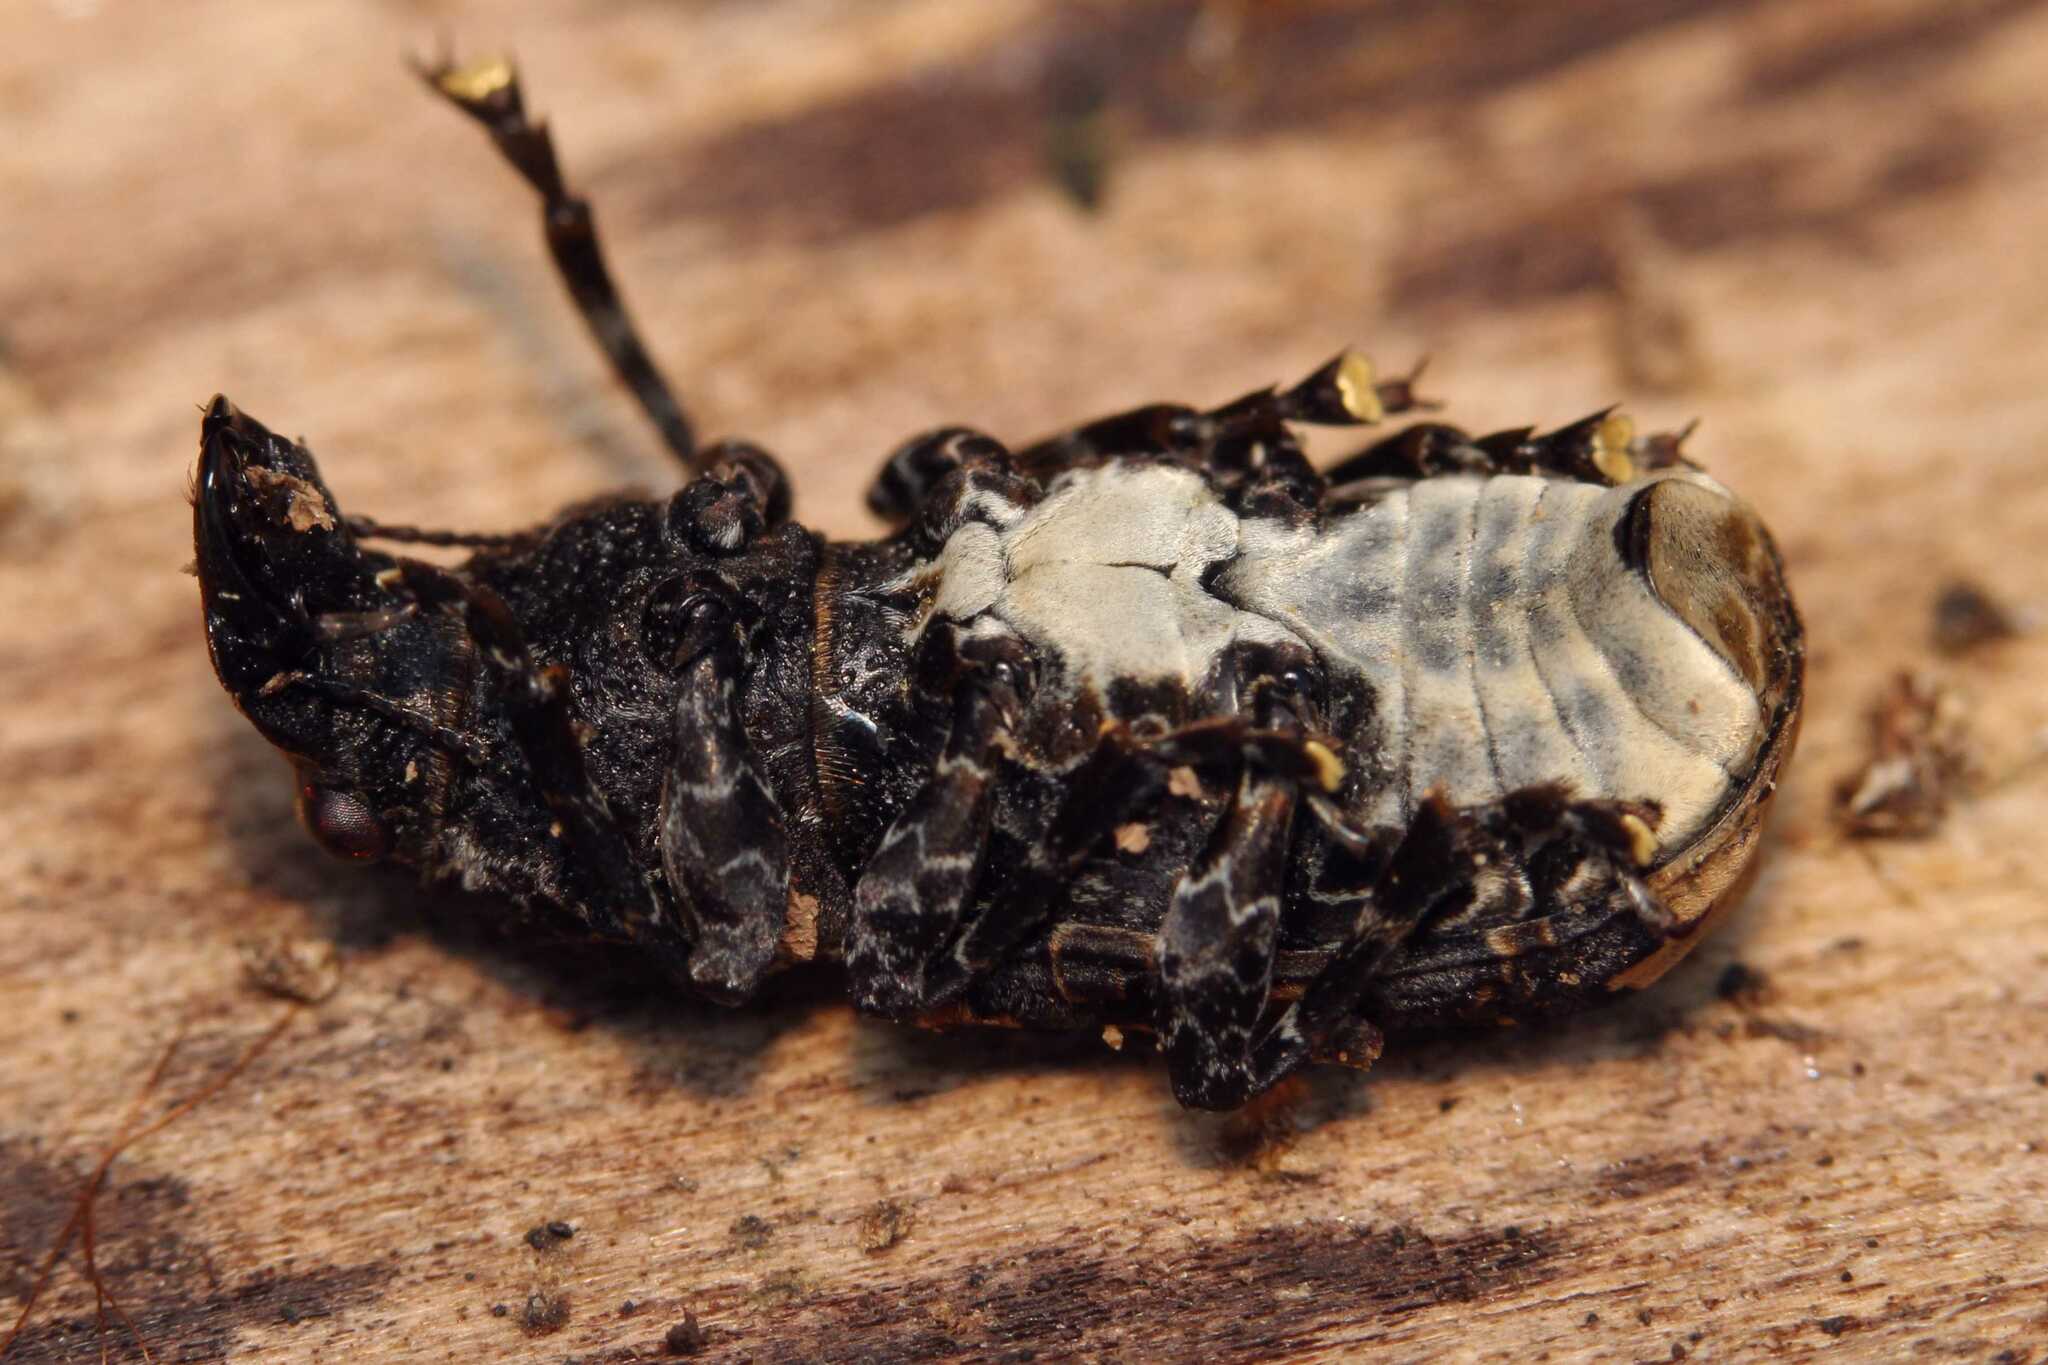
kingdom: Animalia
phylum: Arthropoda
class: Insecta
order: Coleoptera
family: Anthribidae
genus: Platyrhinus
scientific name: Platyrhinus resinosus
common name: Cramp-ball fungus weevil
